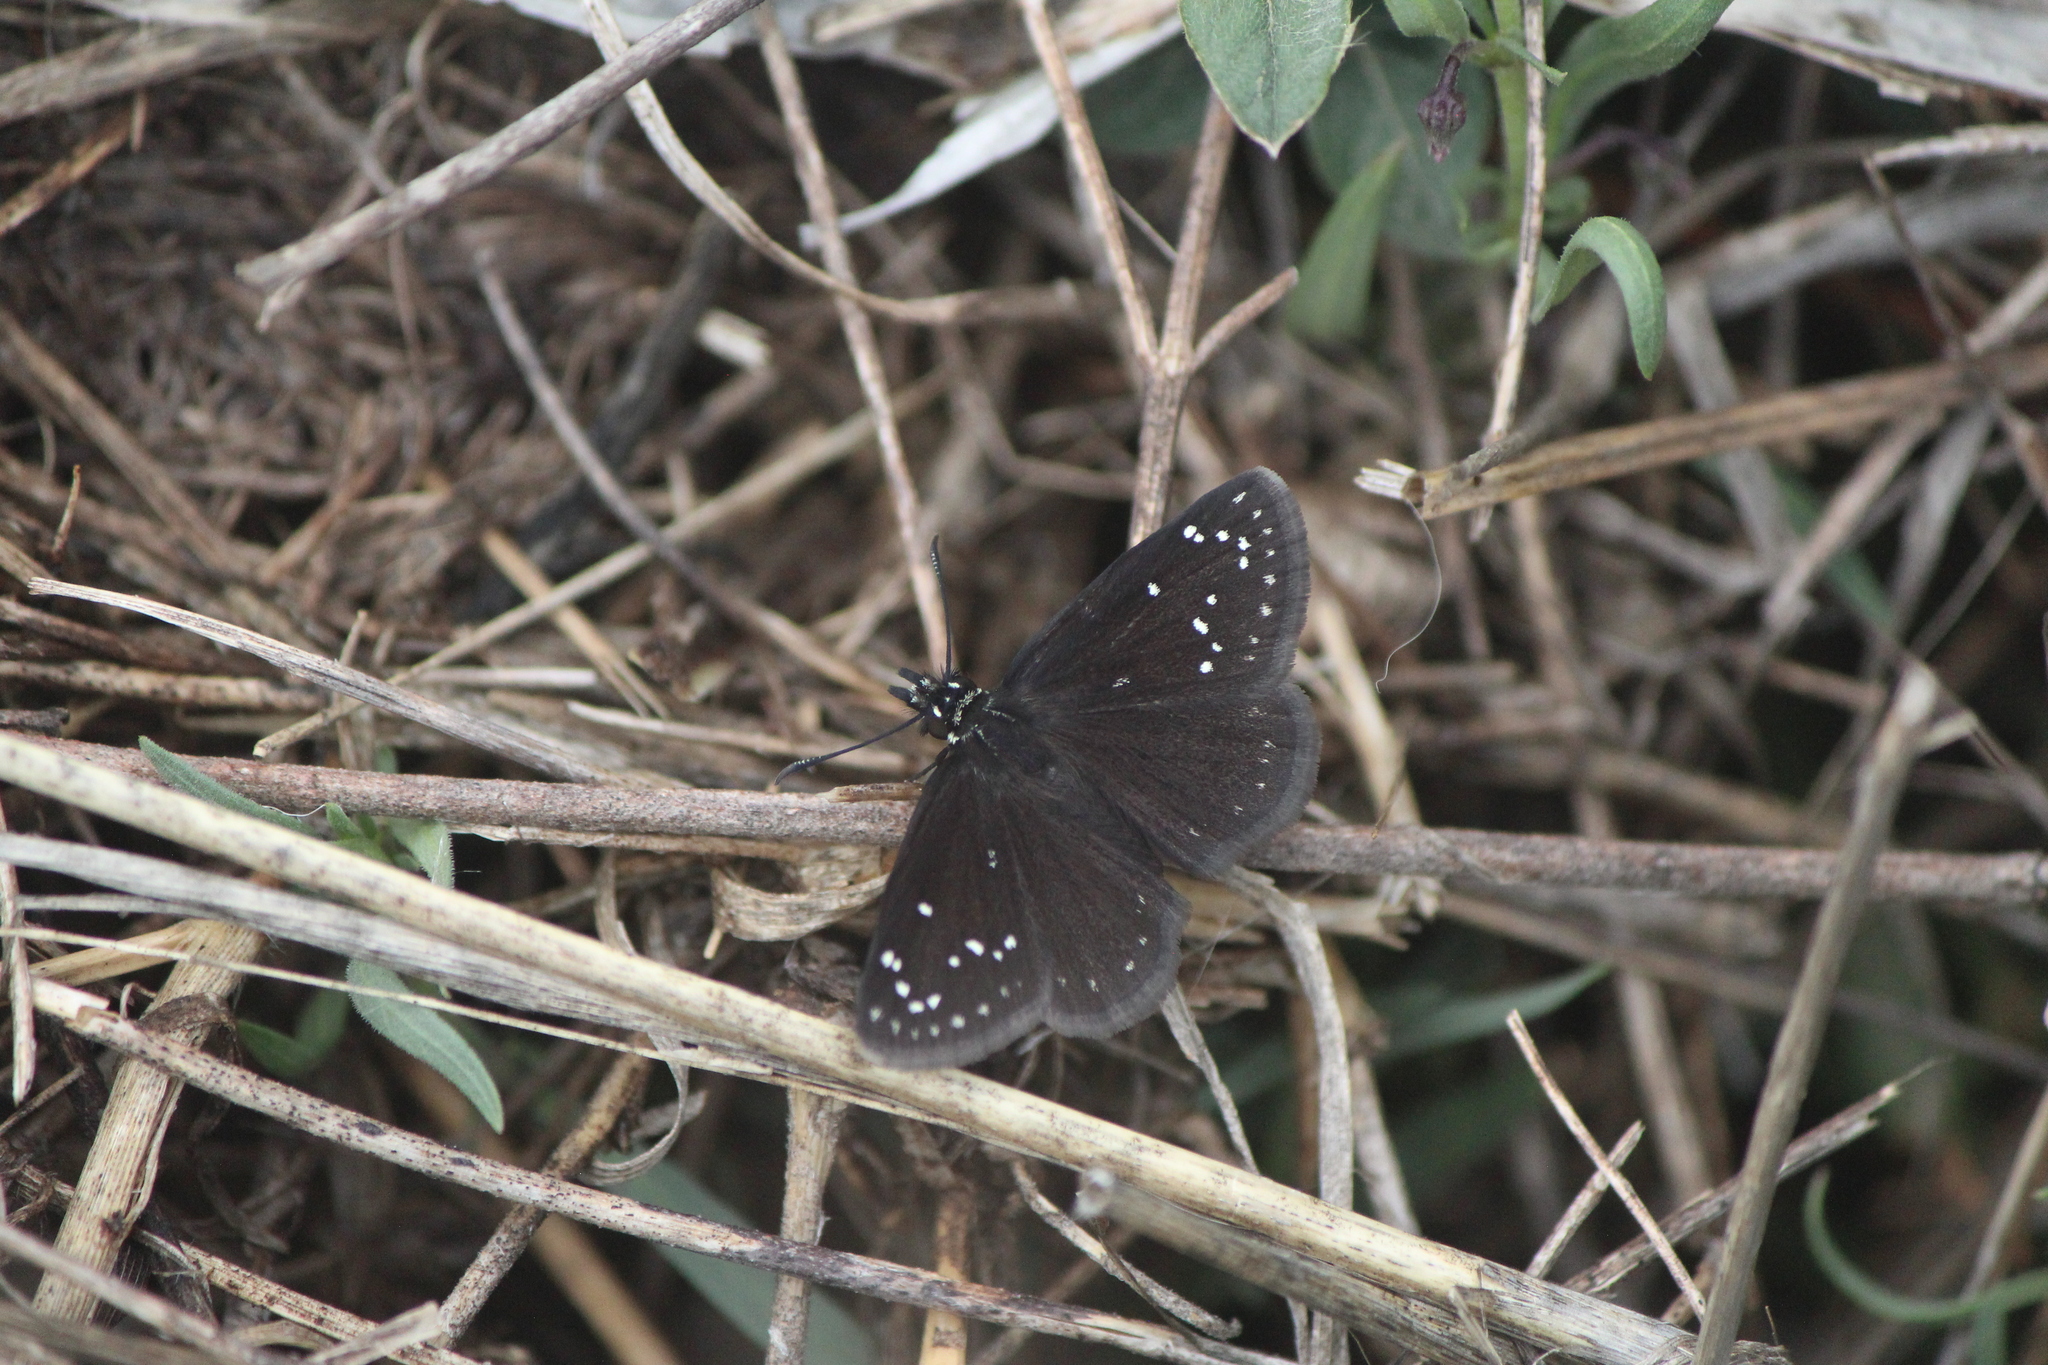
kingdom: Animalia
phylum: Arthropoda
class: Insecta
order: Lepidoptera
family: Hesperiidae
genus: Pholisora
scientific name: Pholisora catullus
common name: Common sootywing
